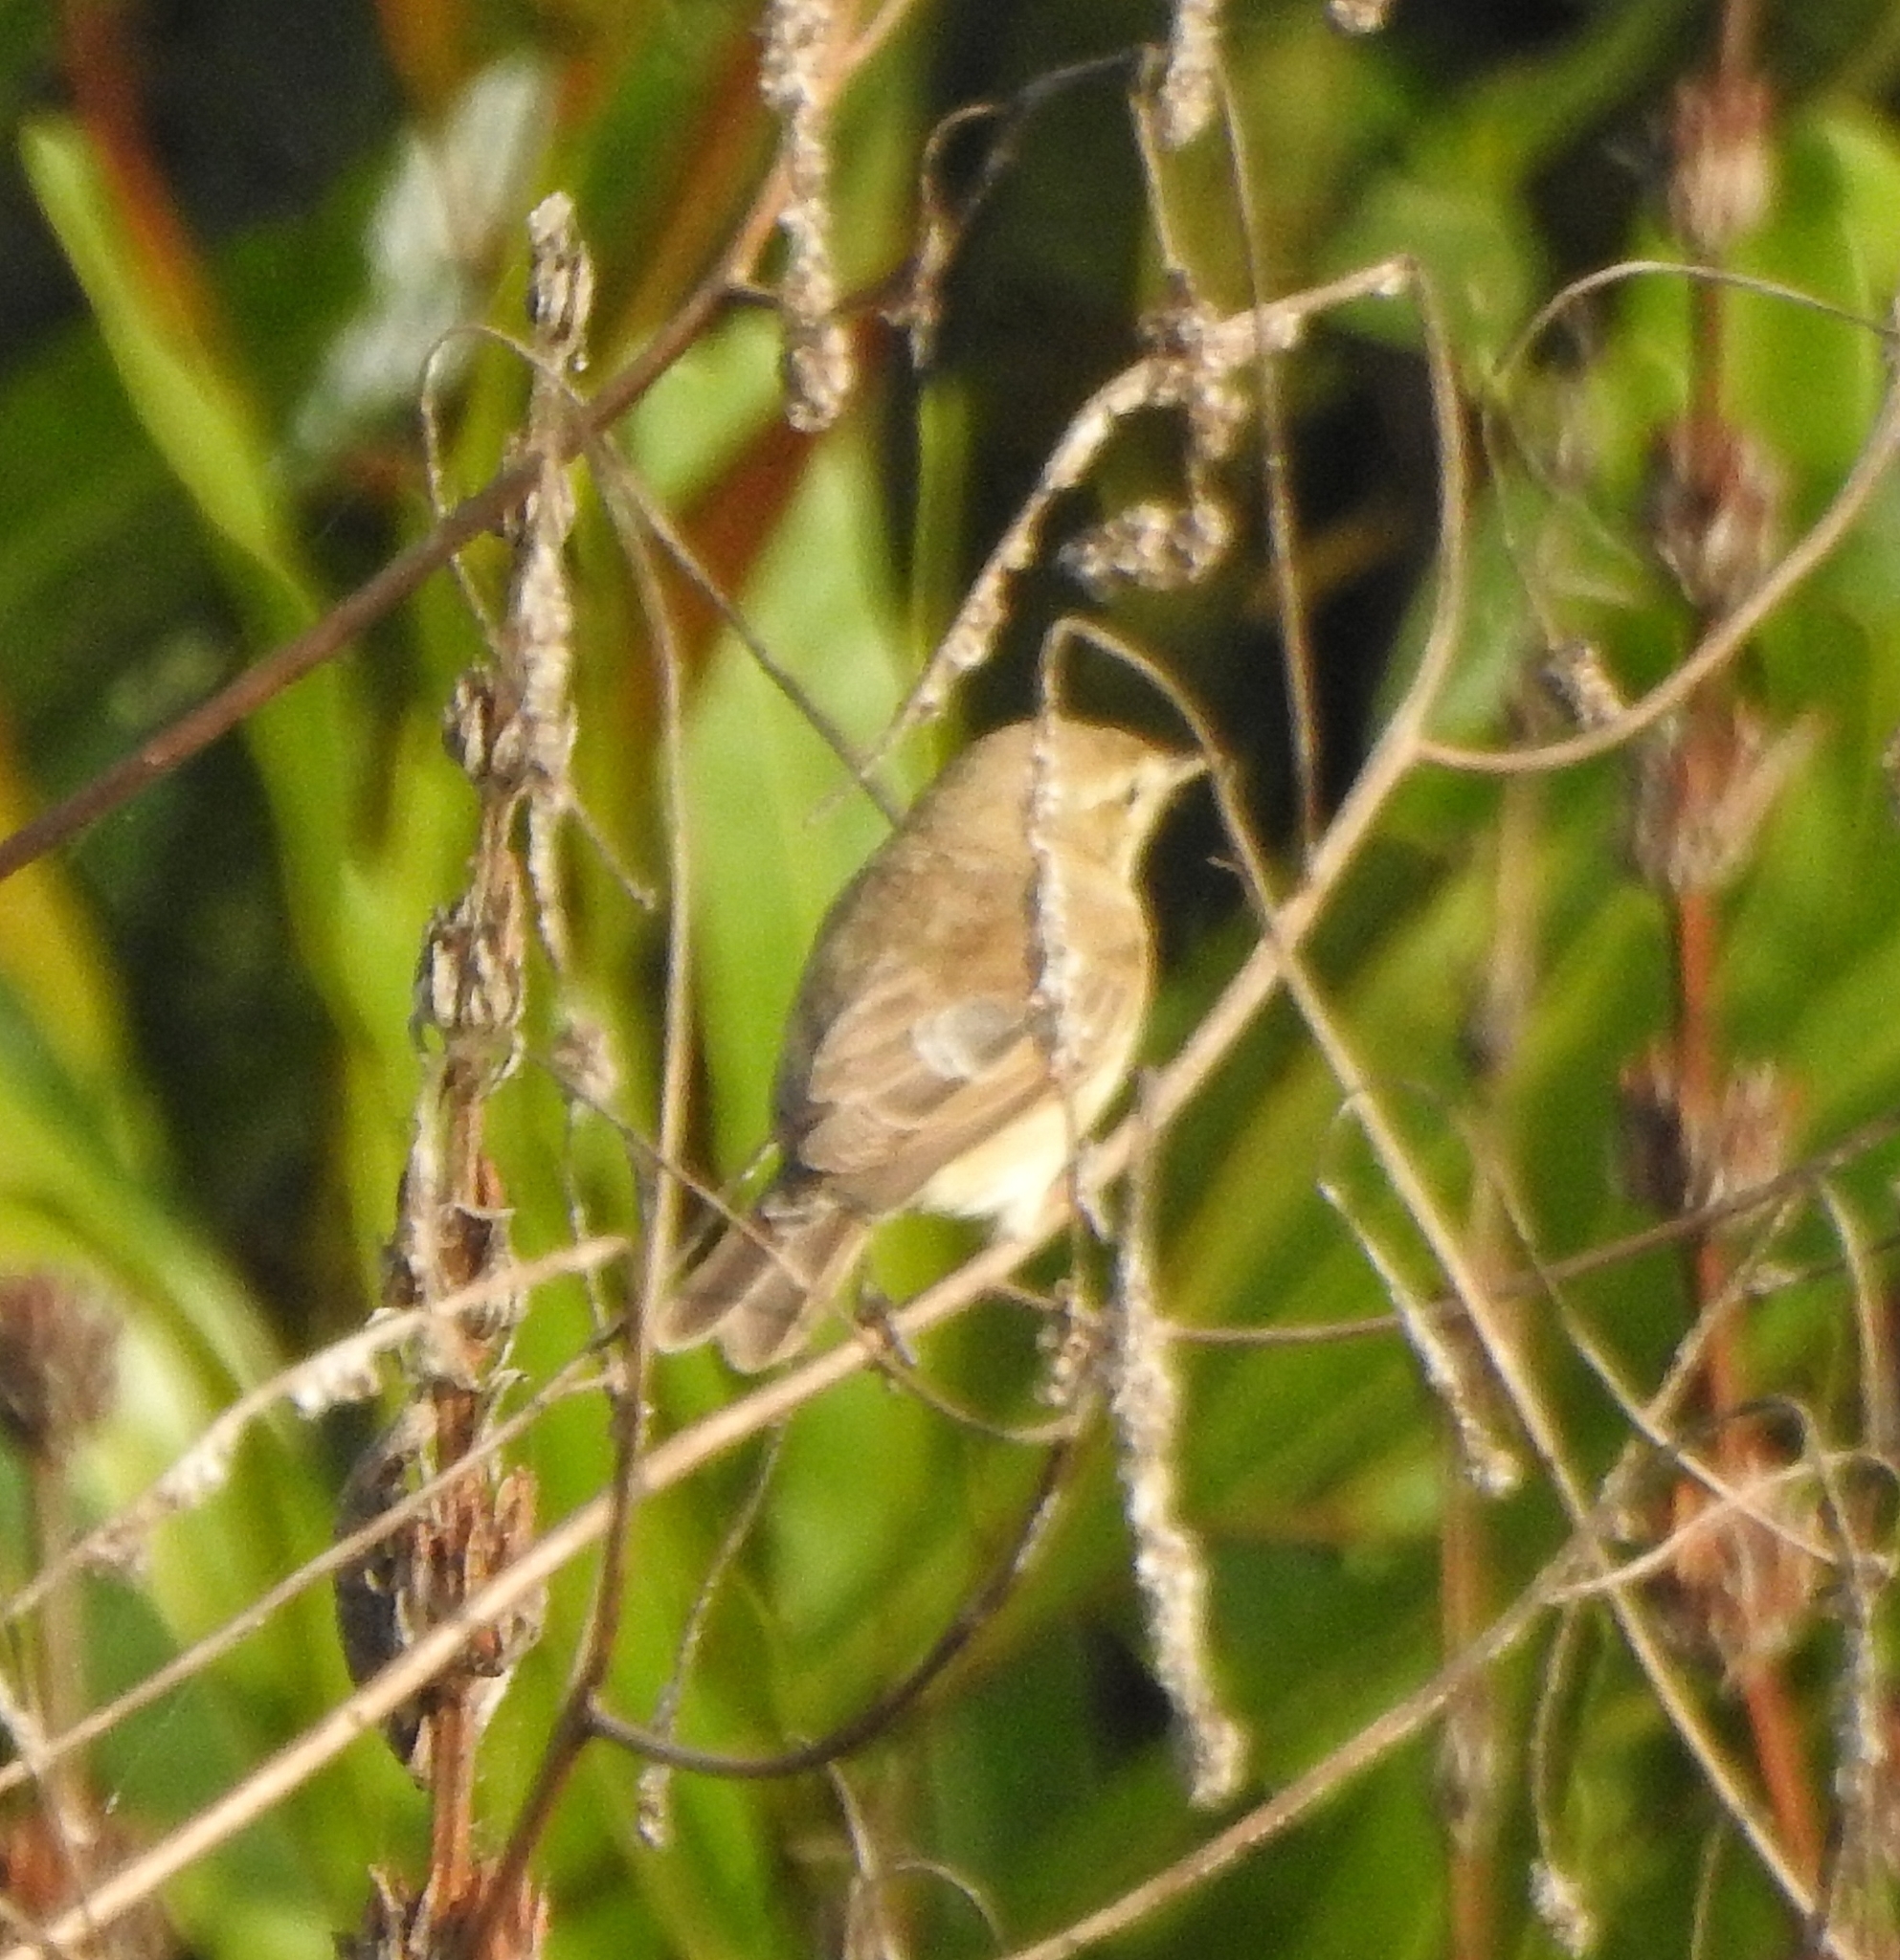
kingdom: Animalia
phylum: Chordata
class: Aves
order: Passeriformes
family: Acrocephalidae
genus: Iduna
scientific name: Iduna caligata
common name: Booted warbler
